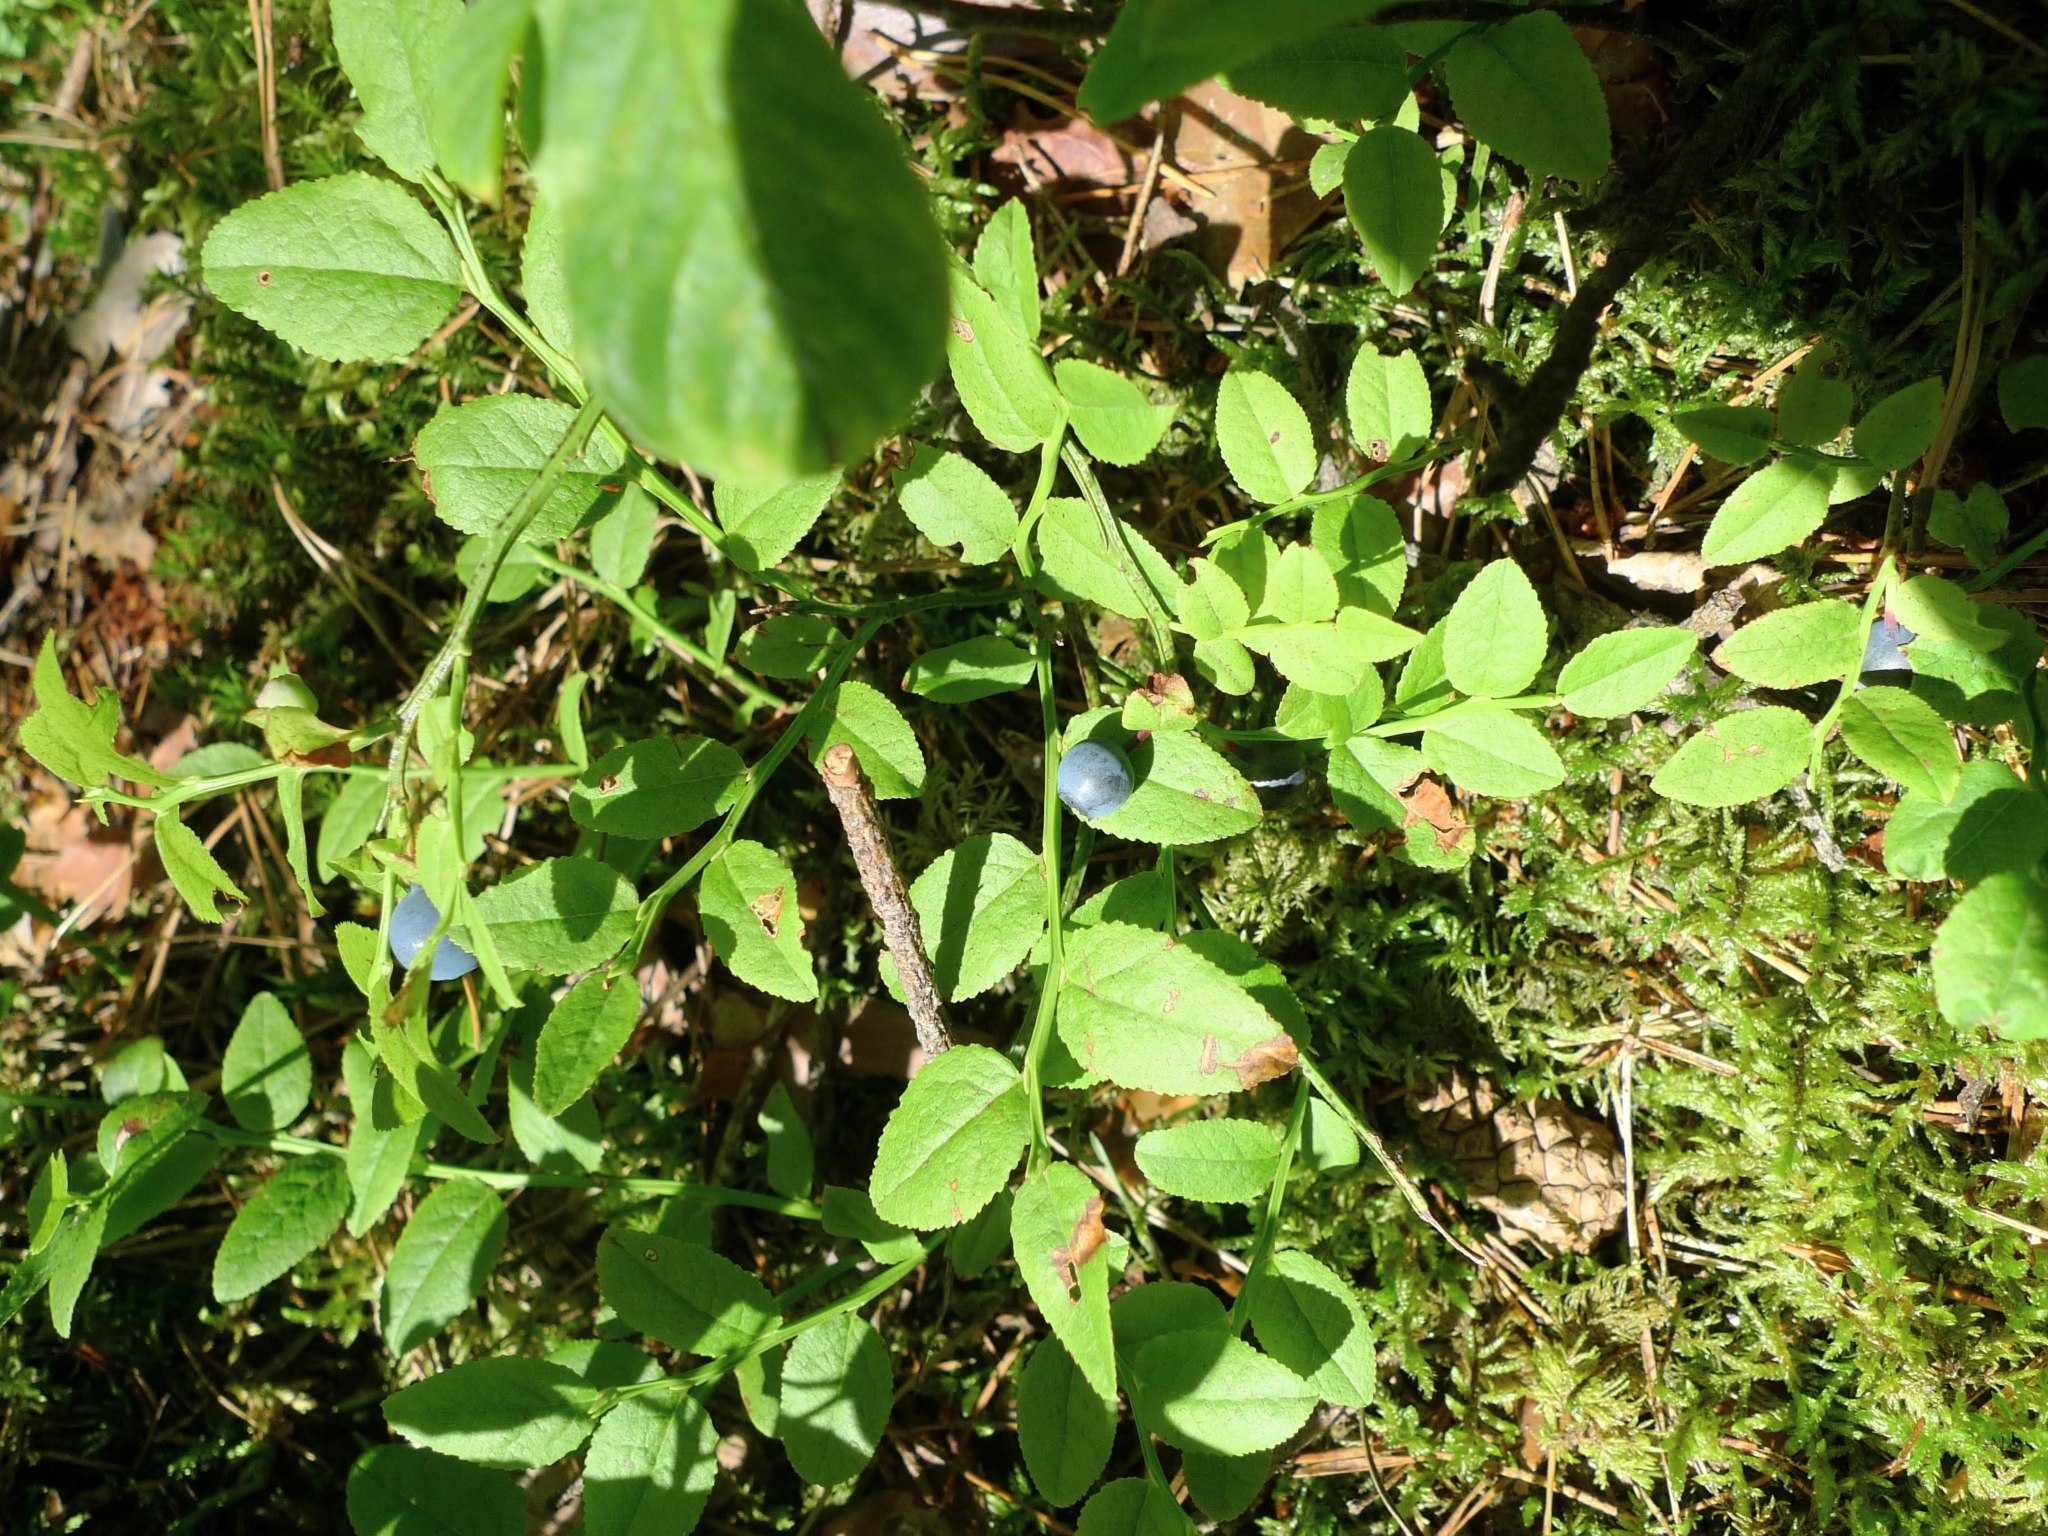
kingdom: Plantae
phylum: Tracheophyta
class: Magnoliopsida
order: Ericales
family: Ericaceae
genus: Vaccinium
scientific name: Vaccinium myrtillus
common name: Bilberry
